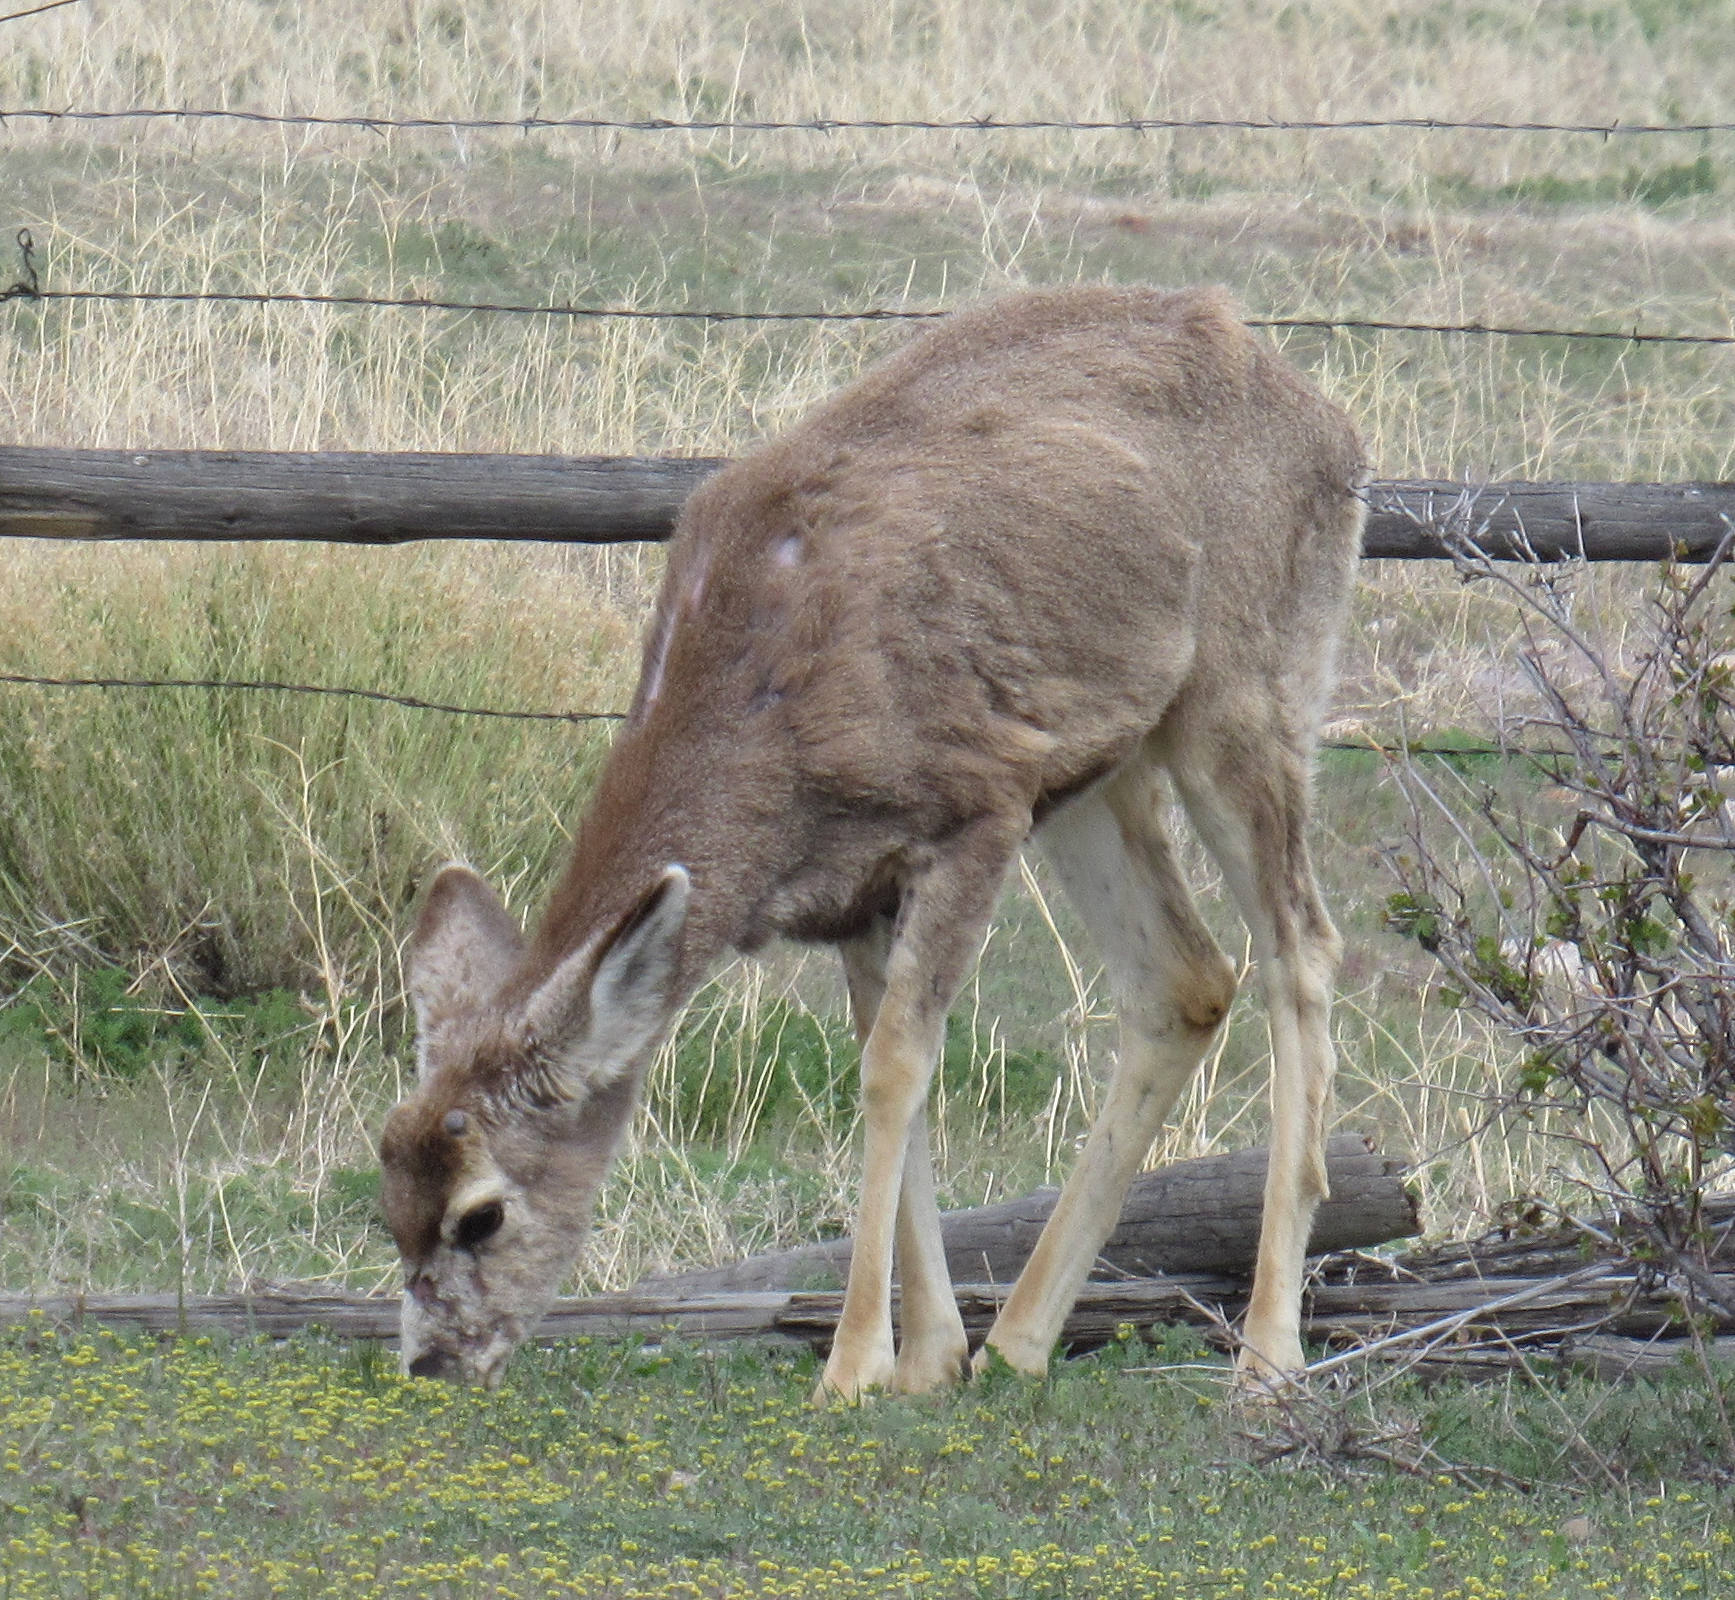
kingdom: Animalia
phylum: Chordata
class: Mammalia
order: Artiodactyla
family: Cervidae
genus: Odocoileus
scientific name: Odocoileus hemionus
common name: Mule deer
